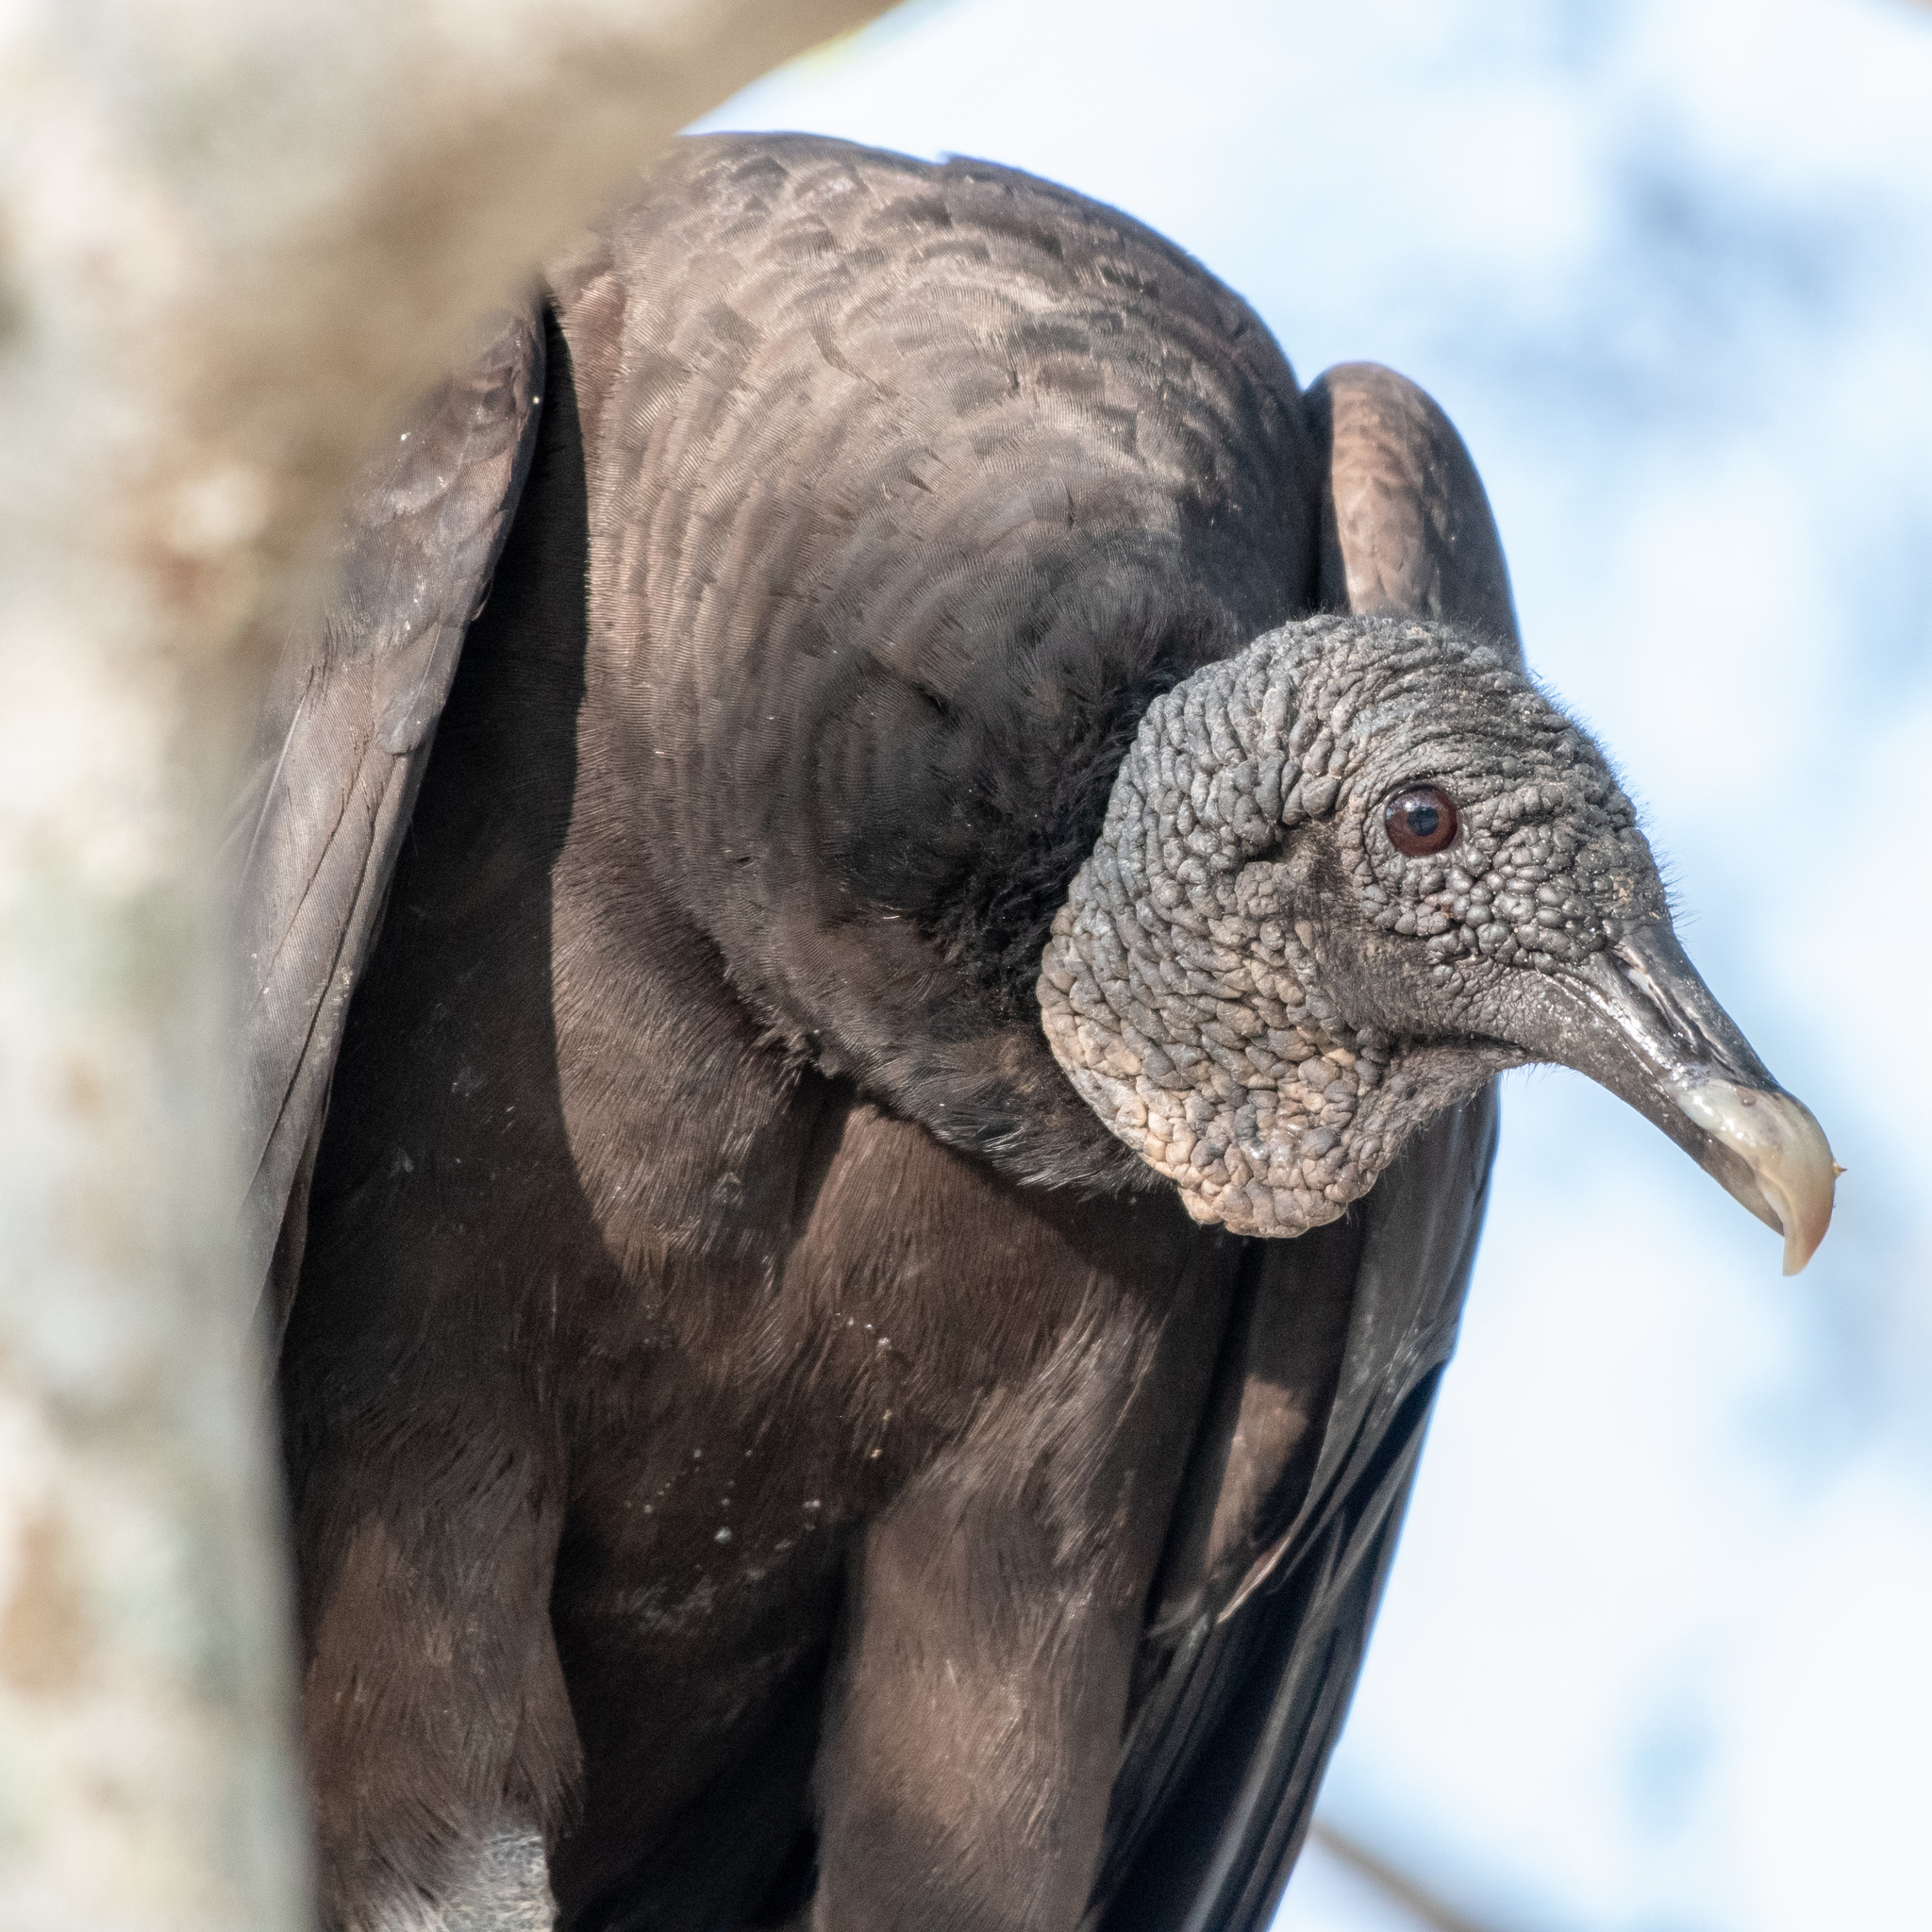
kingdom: Animalia
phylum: Chordata
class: Aves
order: Accipitriformes
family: Cathartidae
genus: Coragyps
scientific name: Coragyps atratus
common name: Black vulture
